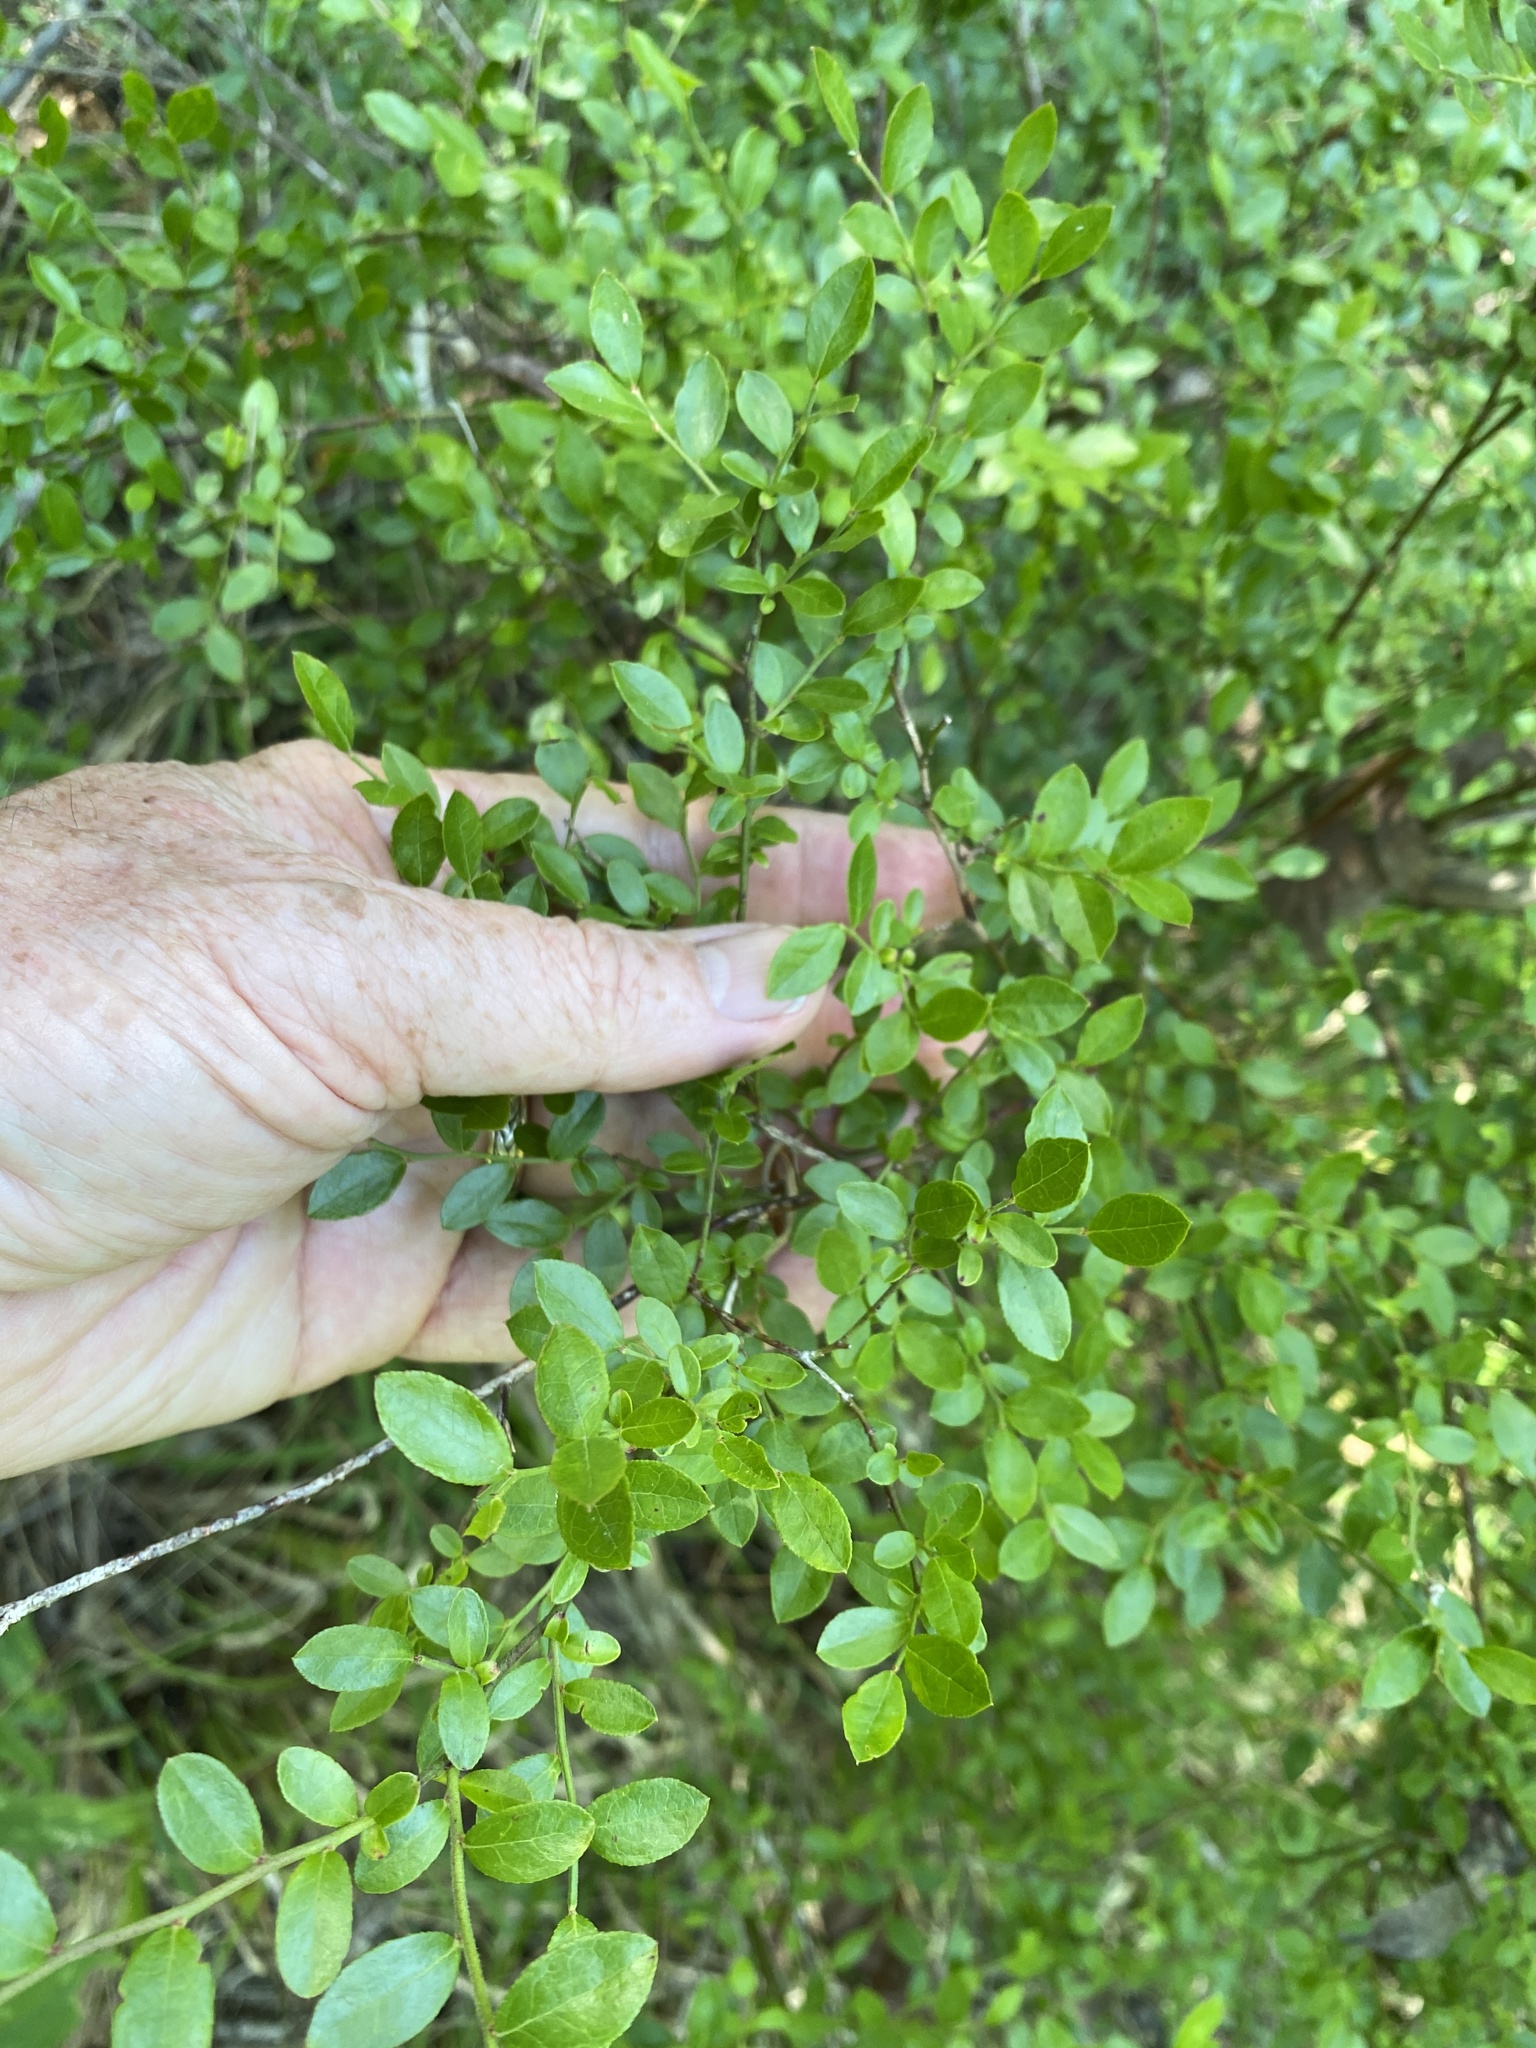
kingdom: Plantae
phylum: Tracheophyta
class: Magnoliopsida
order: Ericales
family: Ericaceae
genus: Vaccinium
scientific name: Vaccinium corymbosum
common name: Blueberry
